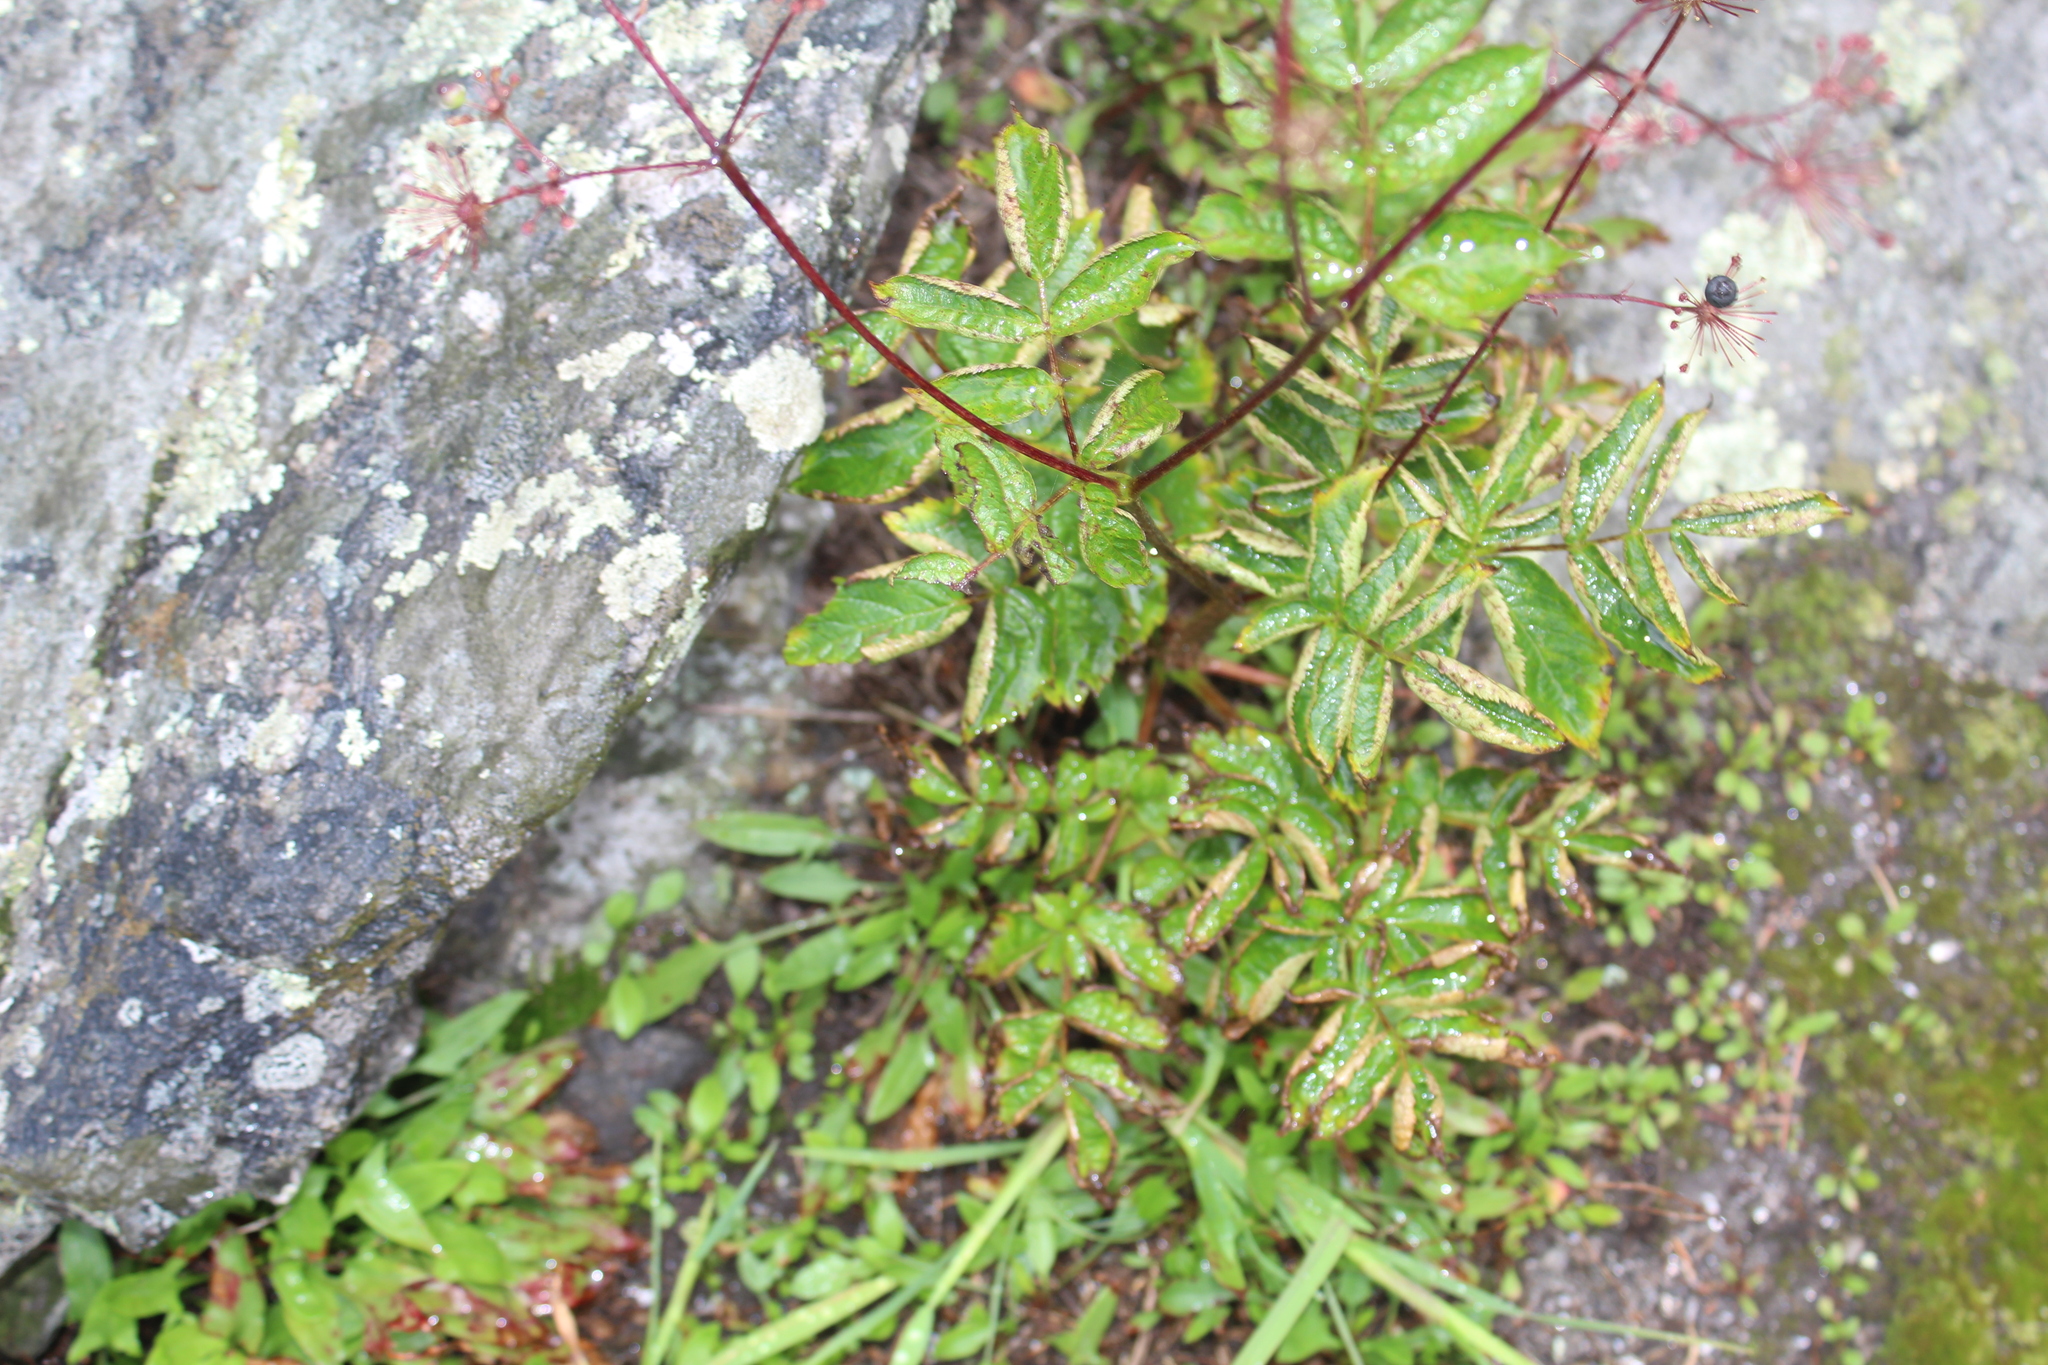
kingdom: Plantae
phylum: Tracheophyta
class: Magnoliopsida
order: Apiales
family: Araliaceae
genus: Aralia
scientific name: Aralia hispida
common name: Bristly sarsaparilla
